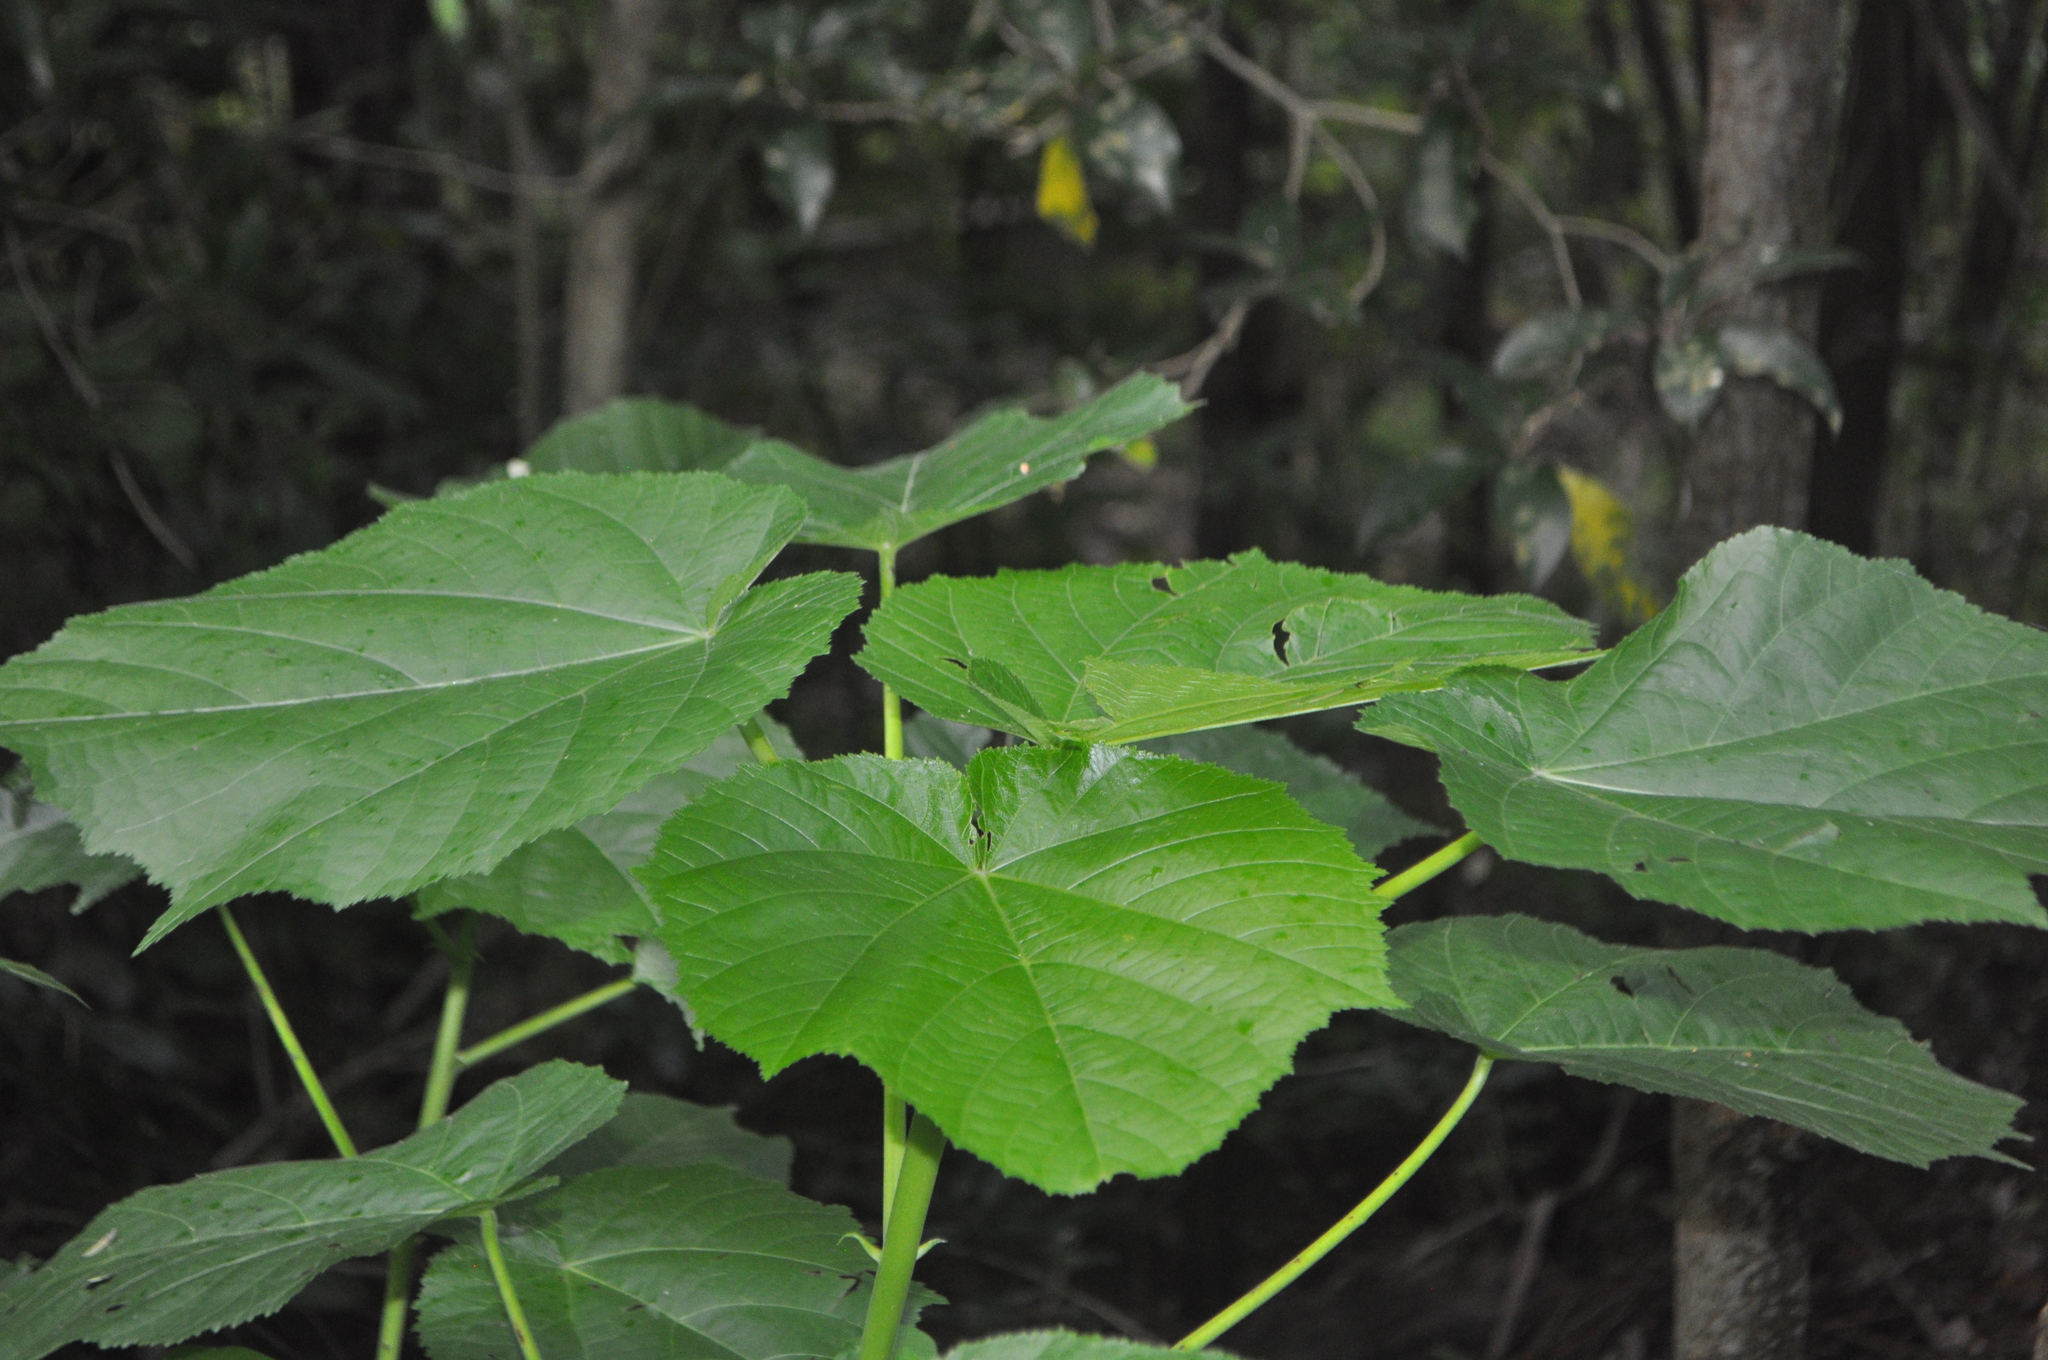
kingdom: Plantae
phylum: Tracheophyta
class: Magnoliopsida
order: Malvales
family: Malvaceae
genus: Entelea
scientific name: Entelea arborescens
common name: New zealand-mulberry
